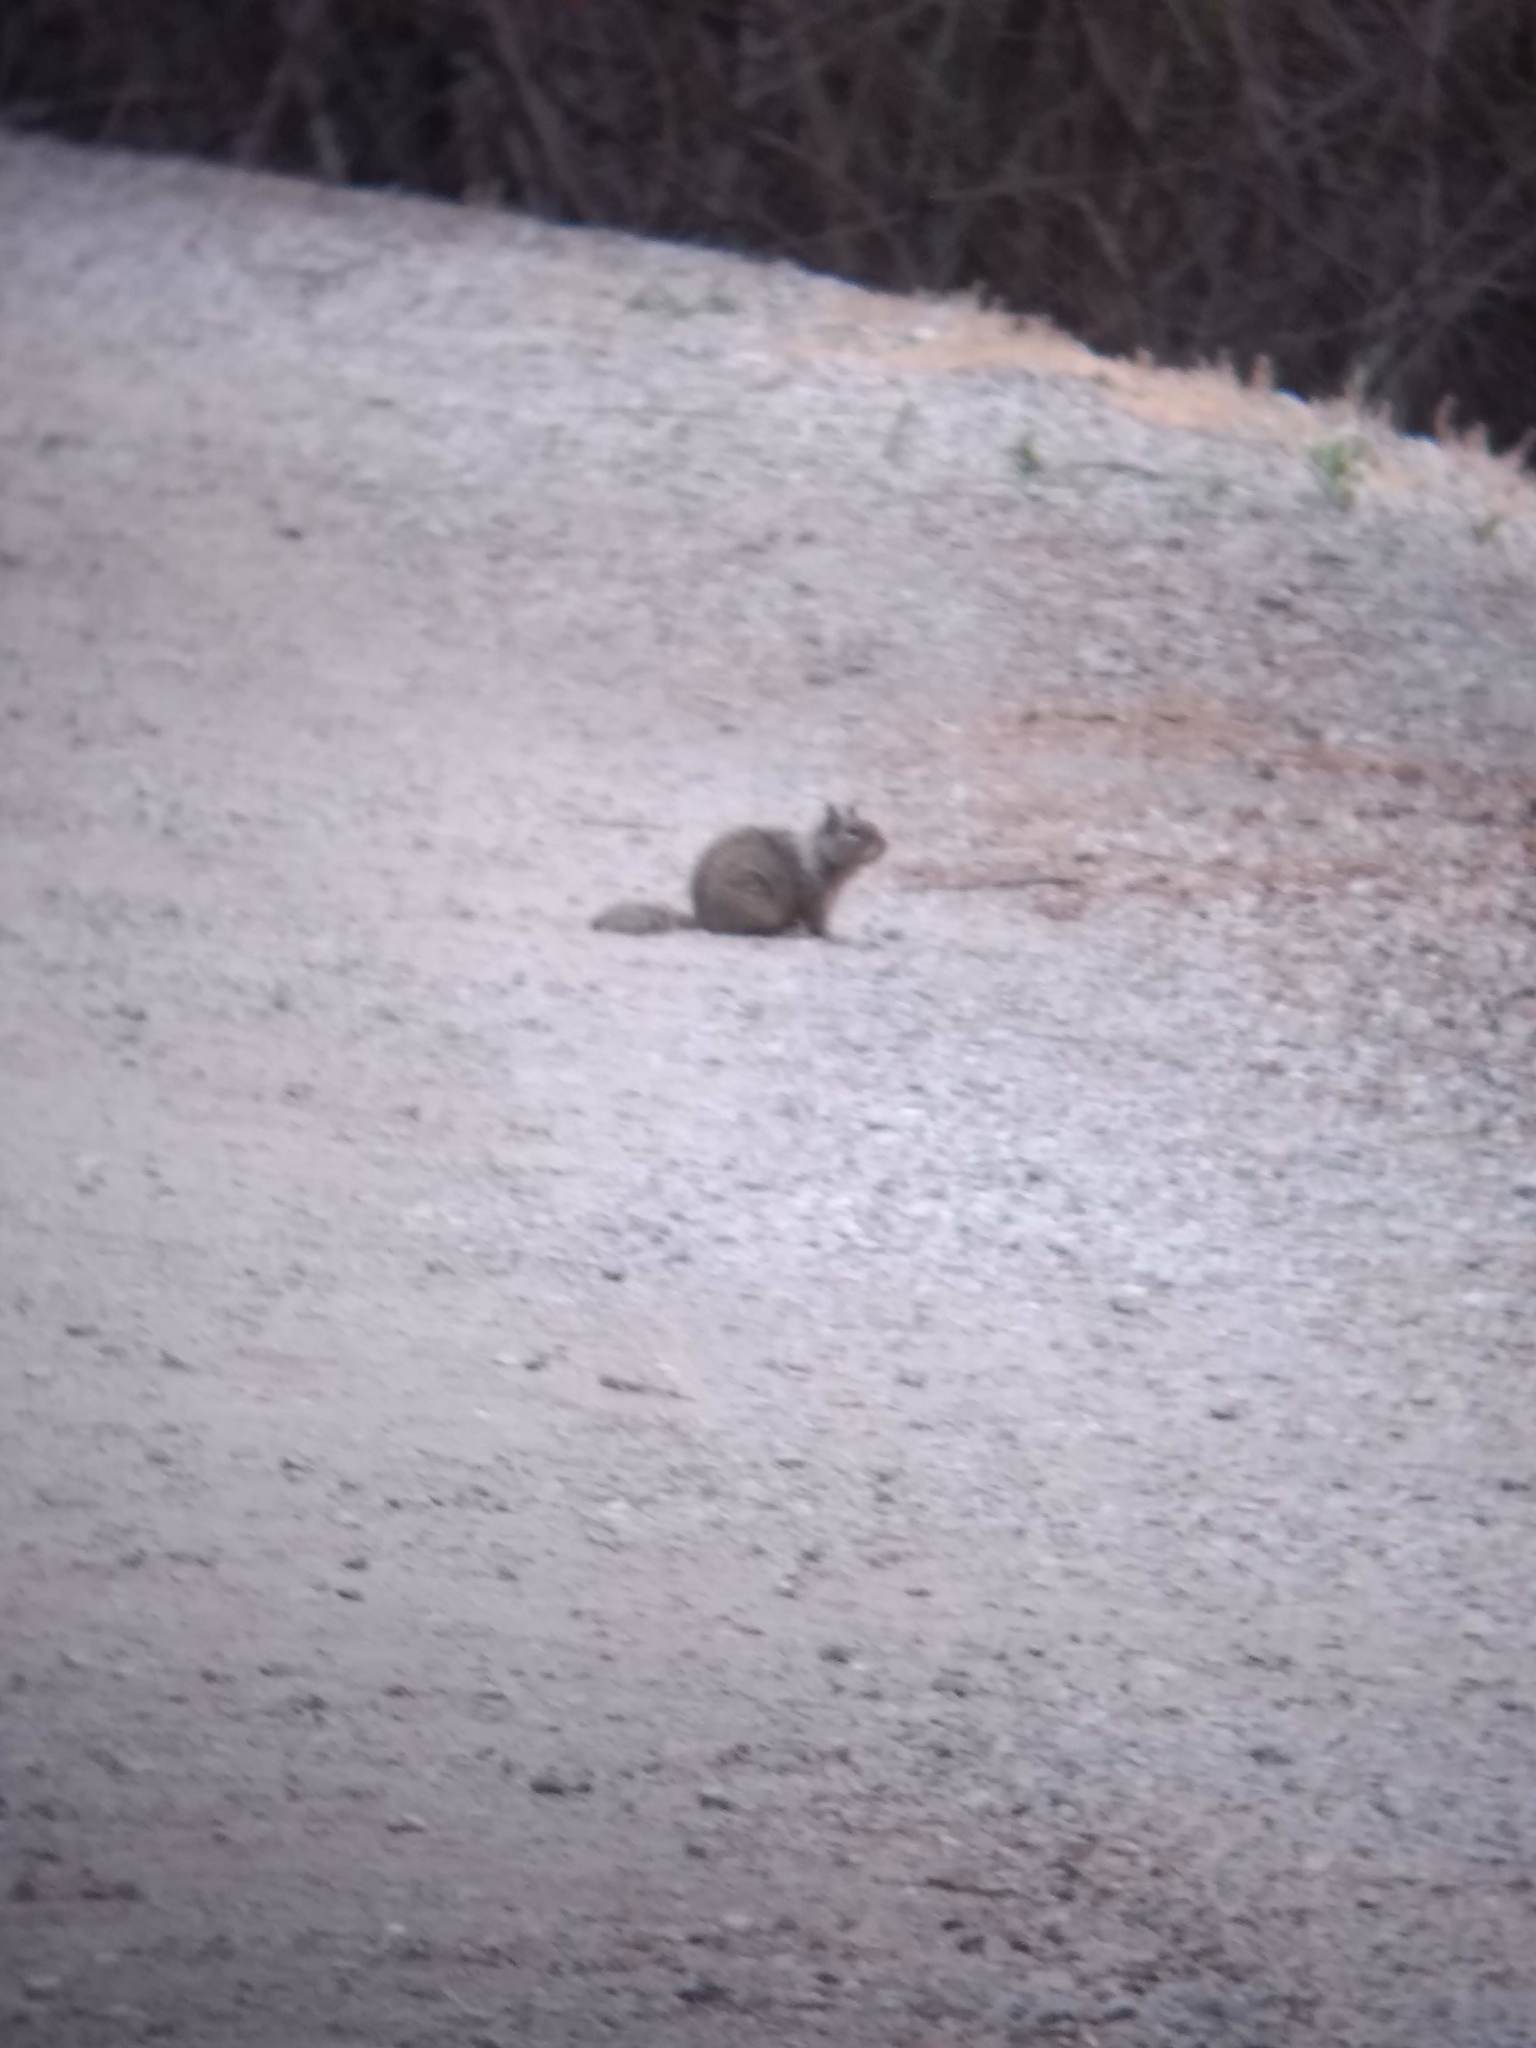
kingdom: Animalia
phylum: Chordata
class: Mammalia
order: Rodentia
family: Sciuridae
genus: Otospermophilus
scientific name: Otospermophilus beecheyi
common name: California ground squirrel
